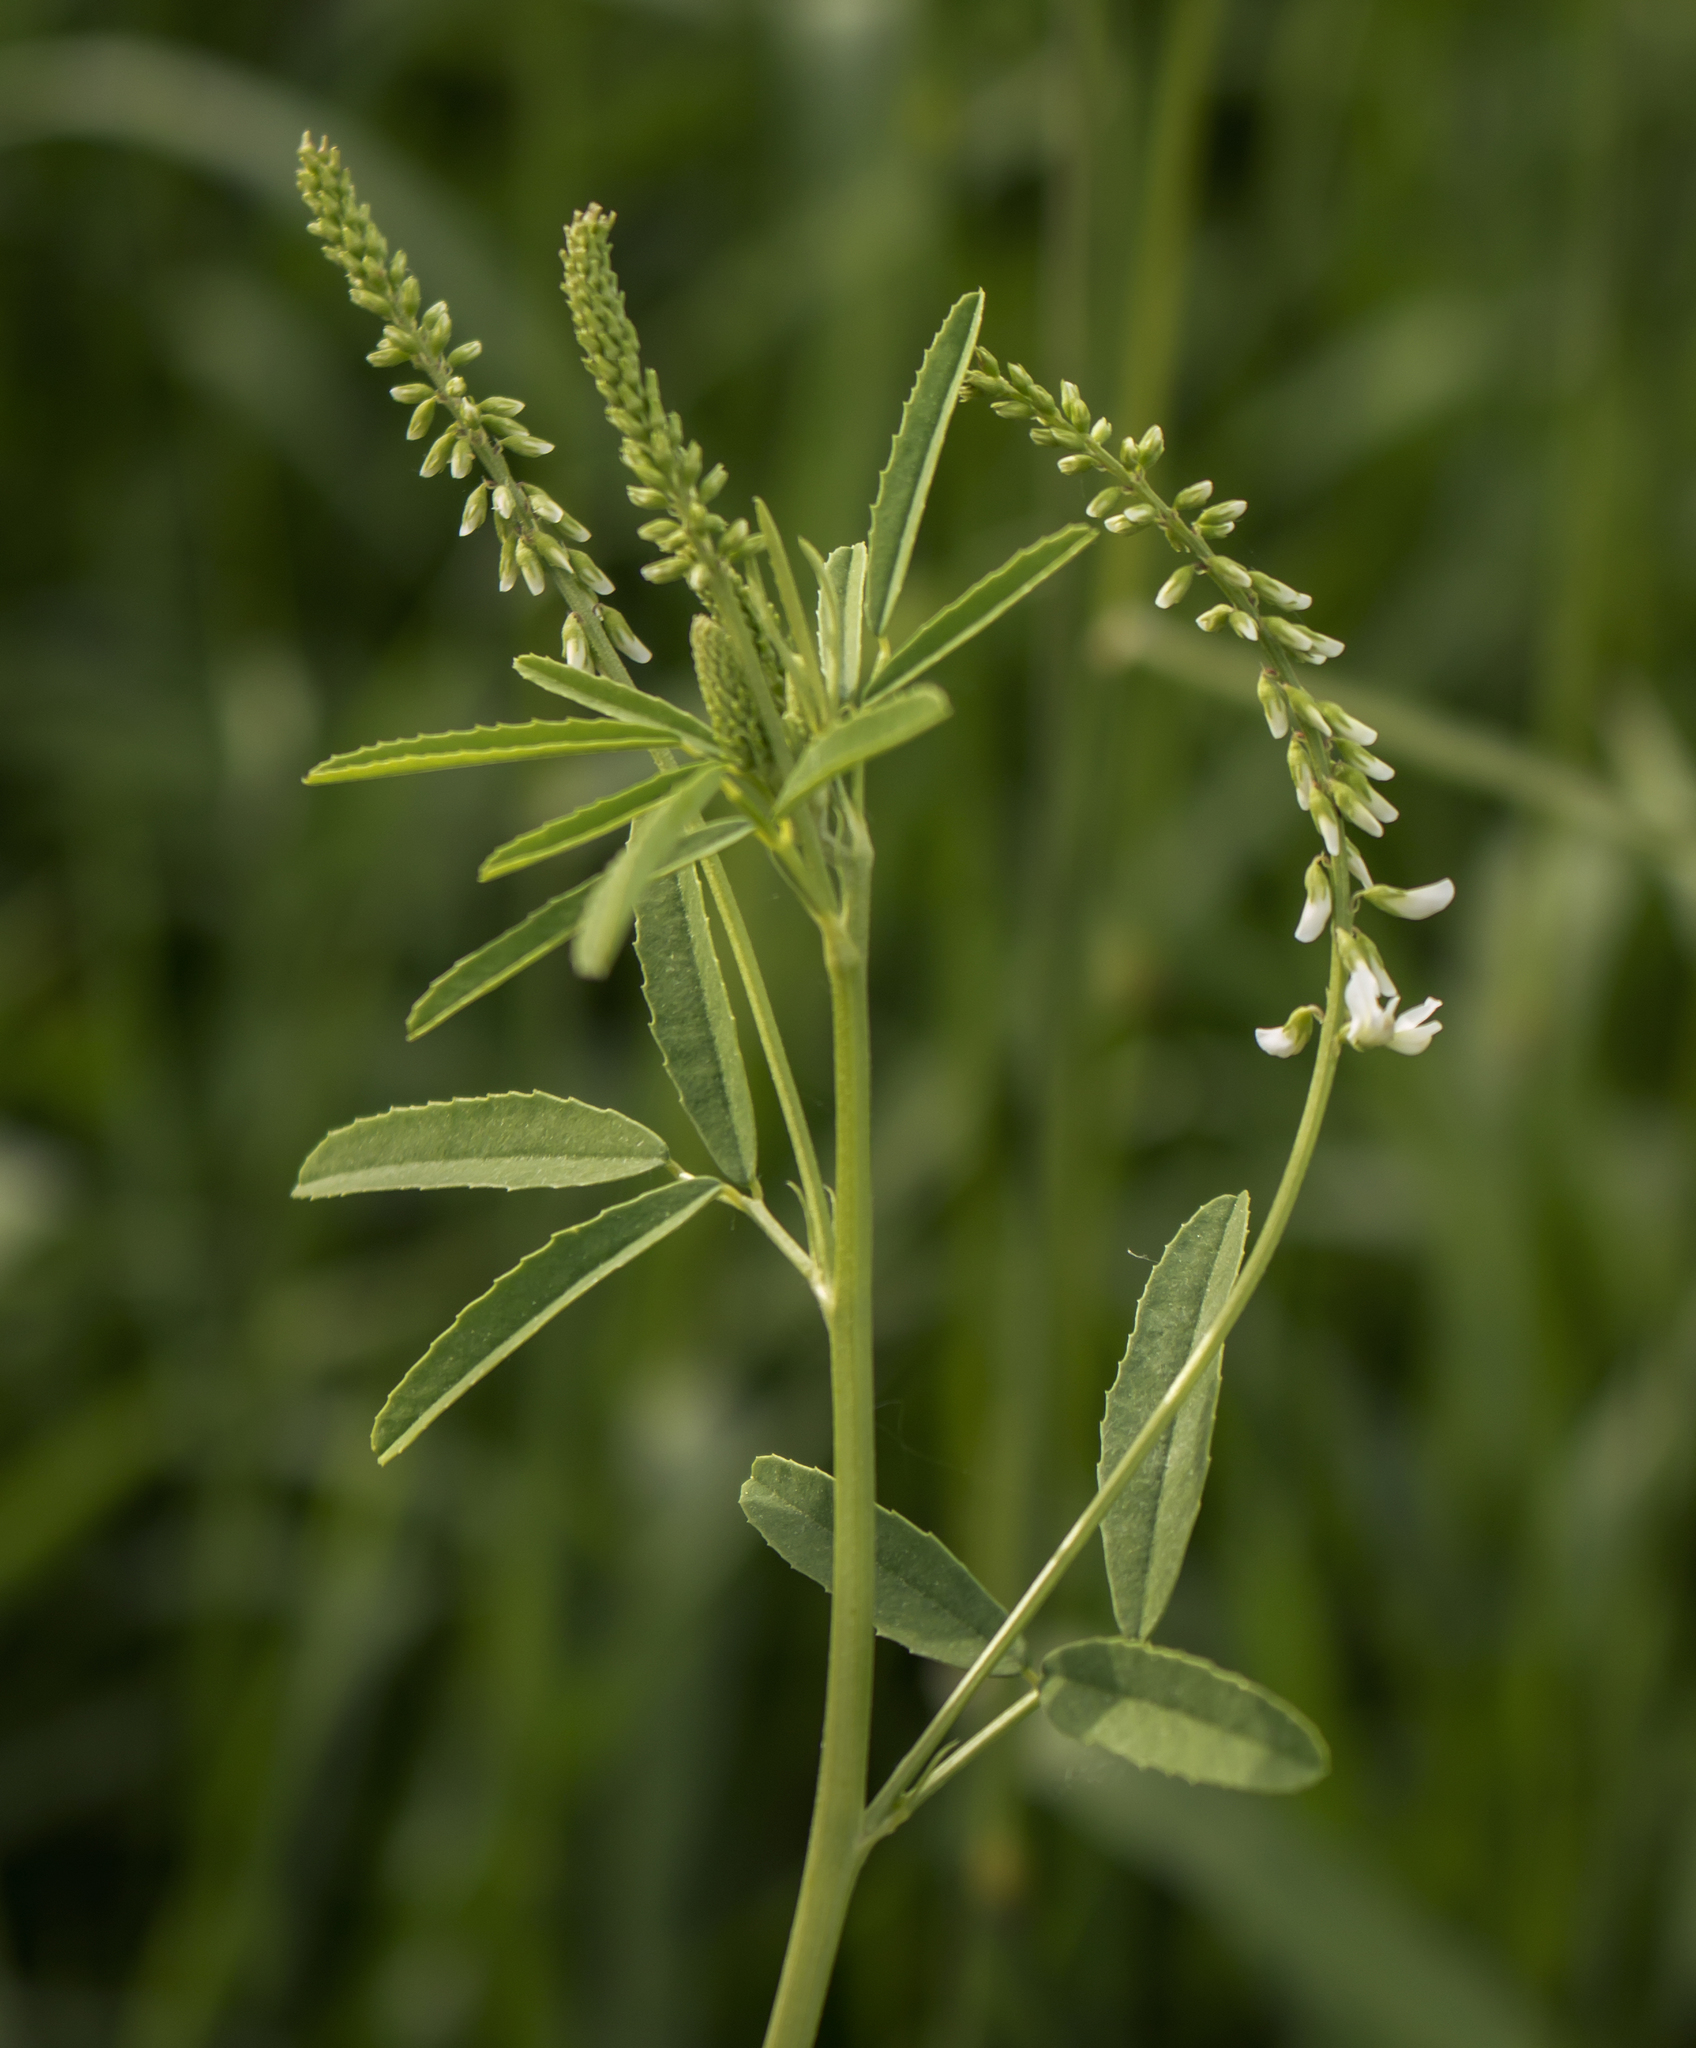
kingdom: Plantae
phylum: Tracheophyta
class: Magnoliopsida
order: Fabales
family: Fabaceae
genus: Melilotus
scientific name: Melilotus albus
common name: White melilot
